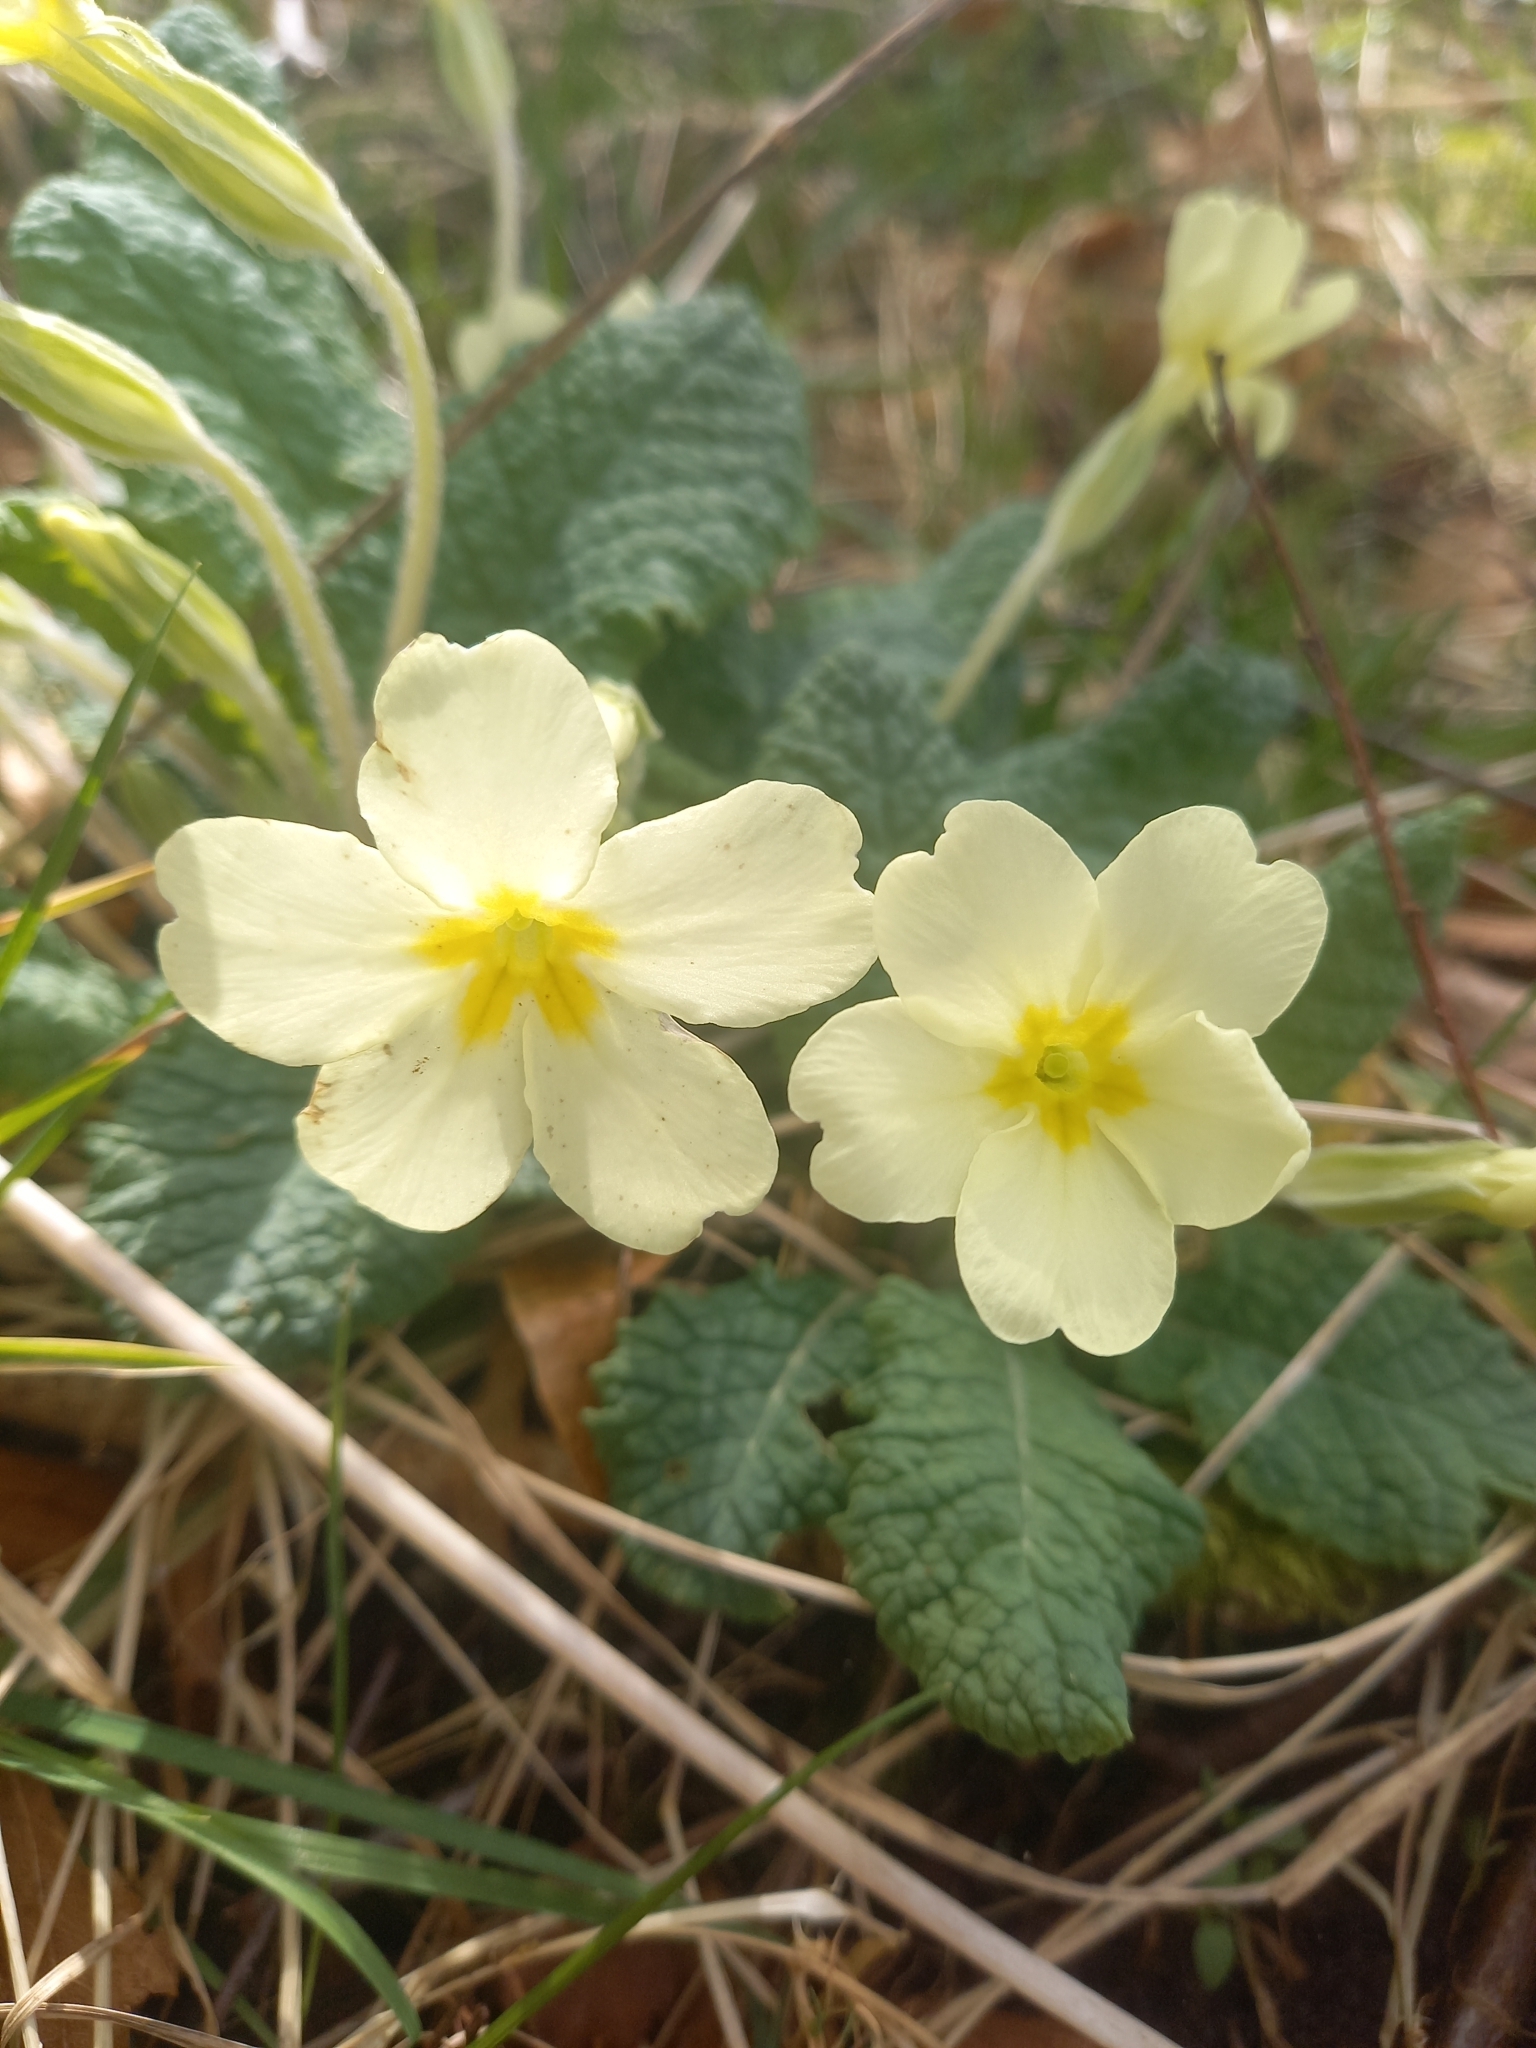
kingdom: Plantae
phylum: Tracheophyta
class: Magnoliopsida
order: Ericales
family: Primulaceae
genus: Primula
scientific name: Primula vulgaris
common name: Primrose
